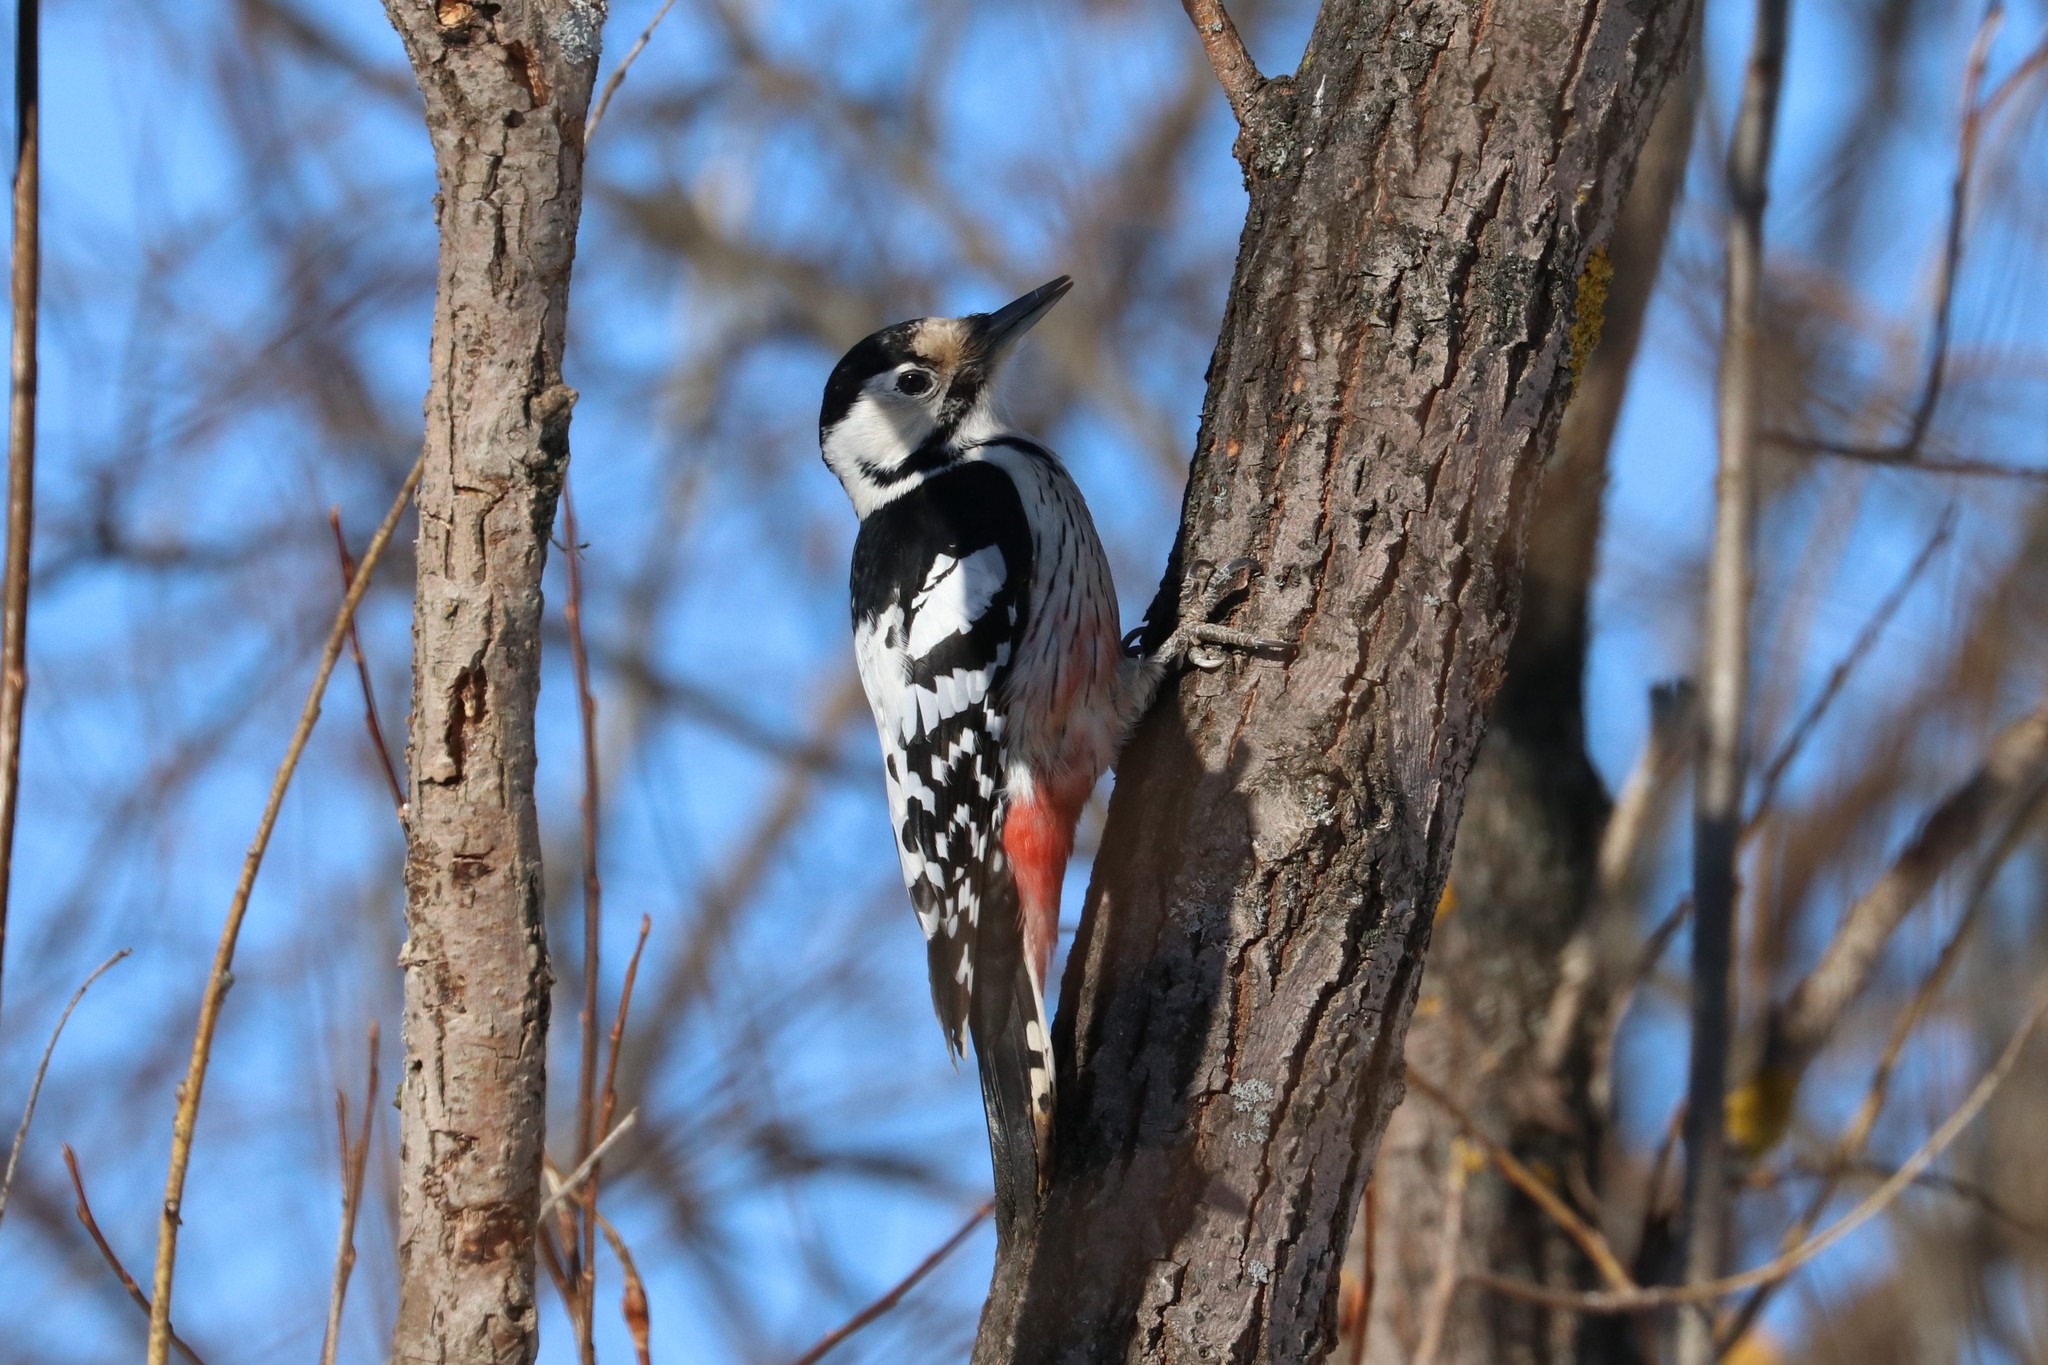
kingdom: Animalia
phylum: Chordata
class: Aves
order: Piciformes
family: Picidae
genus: Dendrocopos
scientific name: Dendrocopos leucotos
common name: White-backed woodpecker
